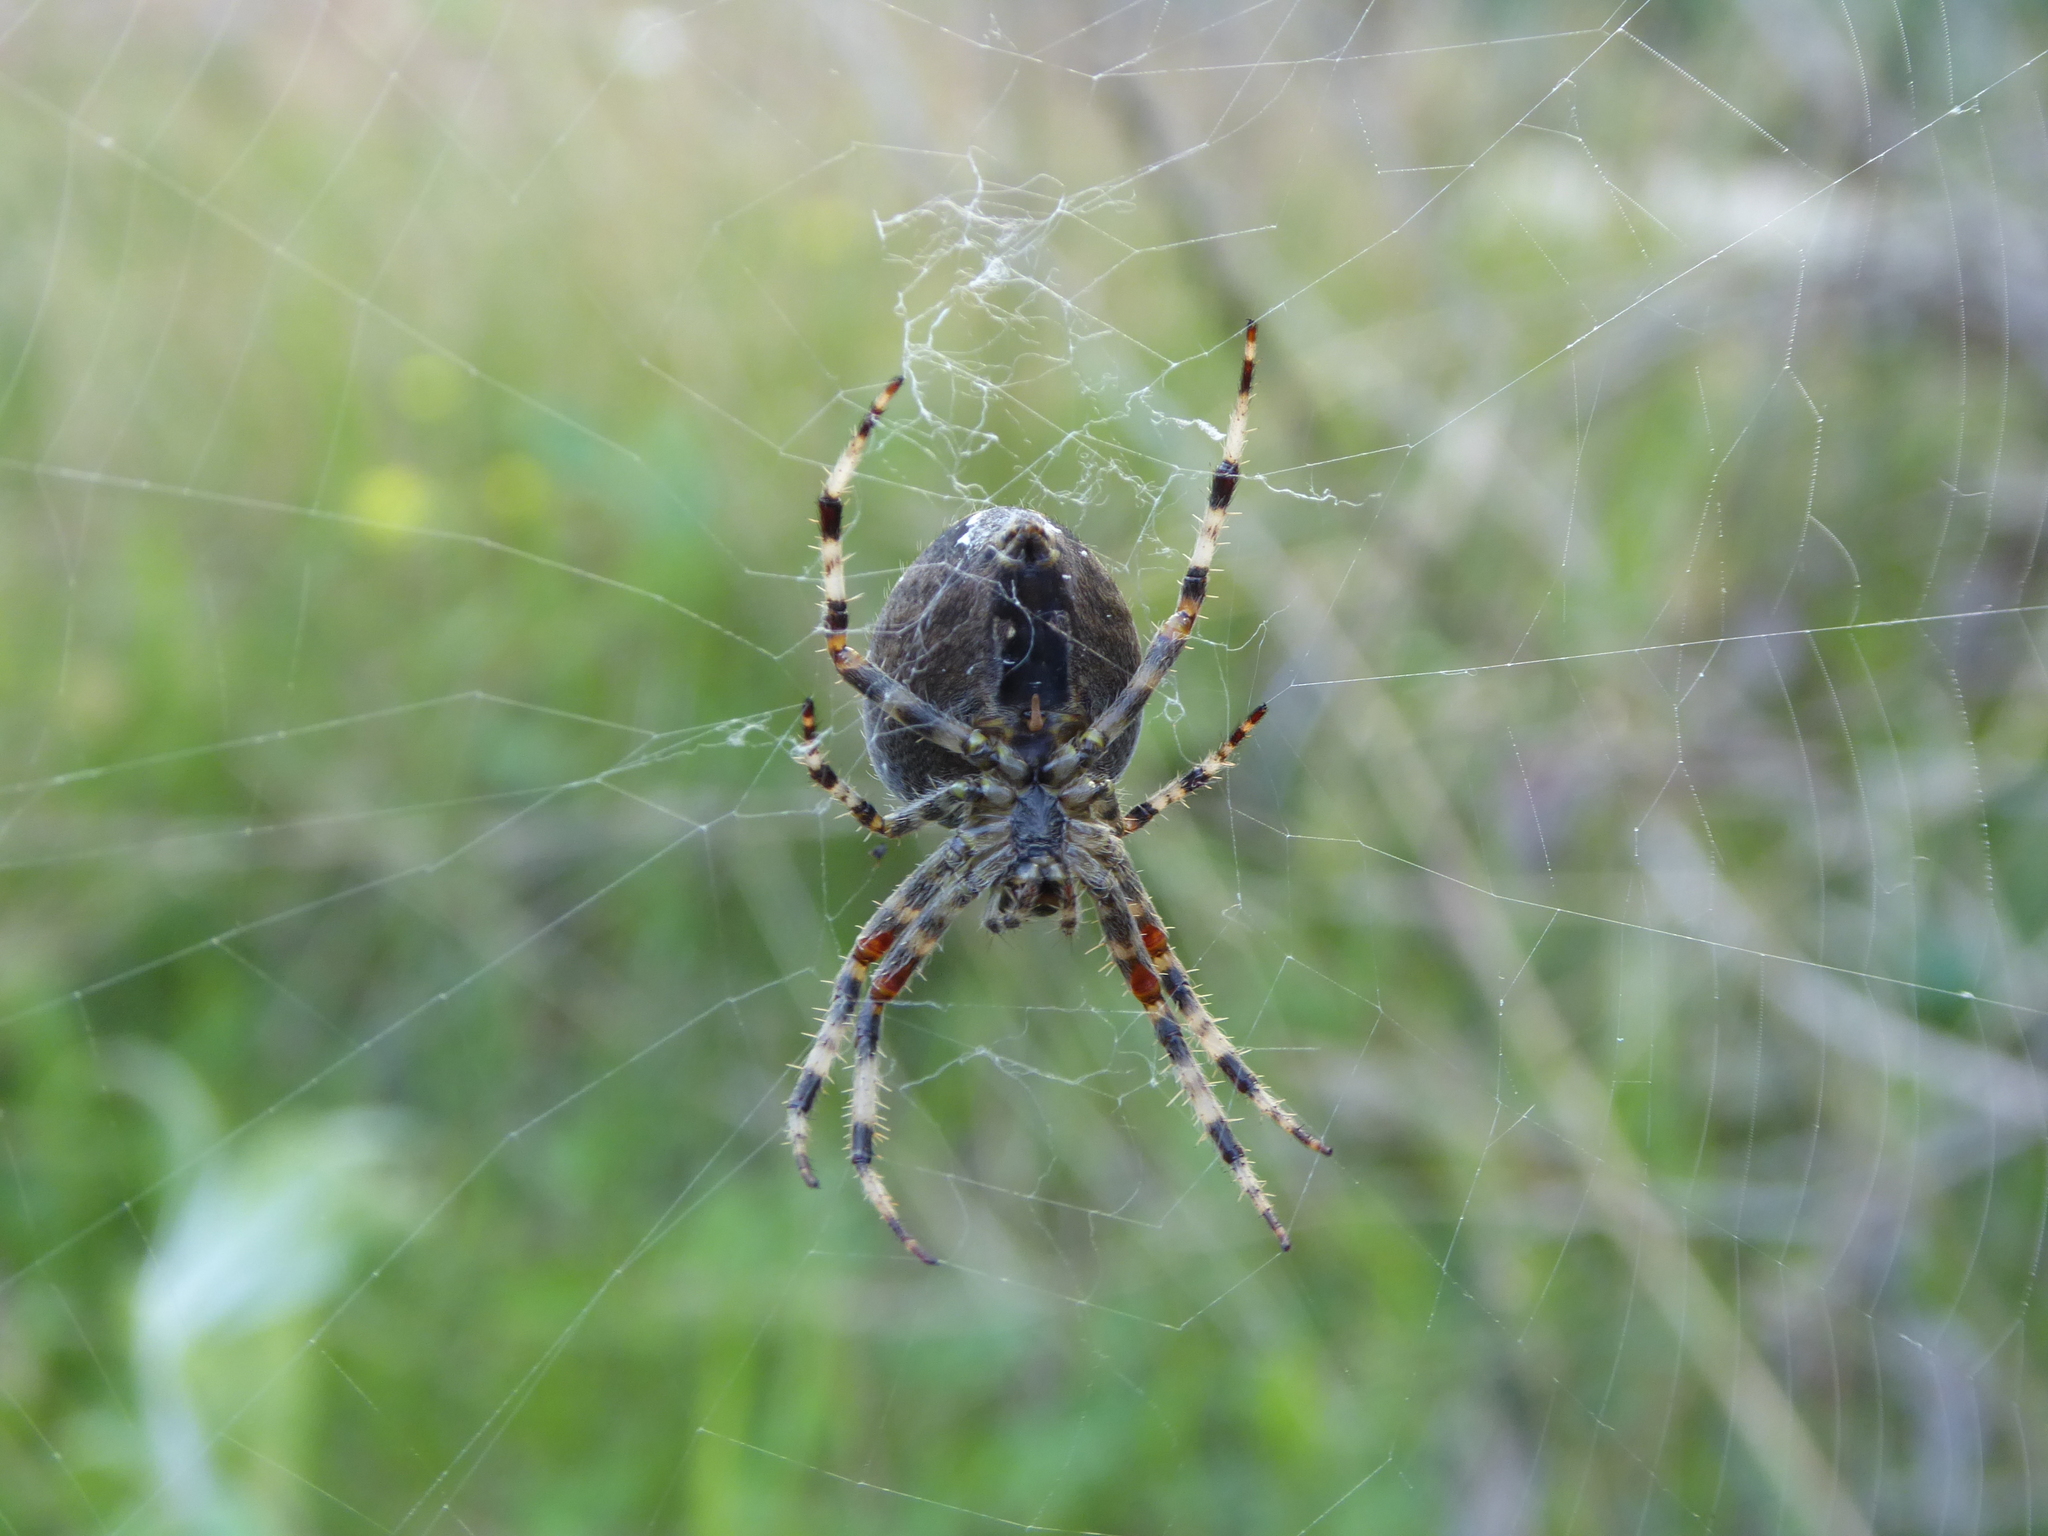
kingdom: Animalia
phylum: Arthropoda
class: Arachnida
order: Araneae
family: Araneidae
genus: Araneus
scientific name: Araneus diadematus
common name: Cross orbweaver
